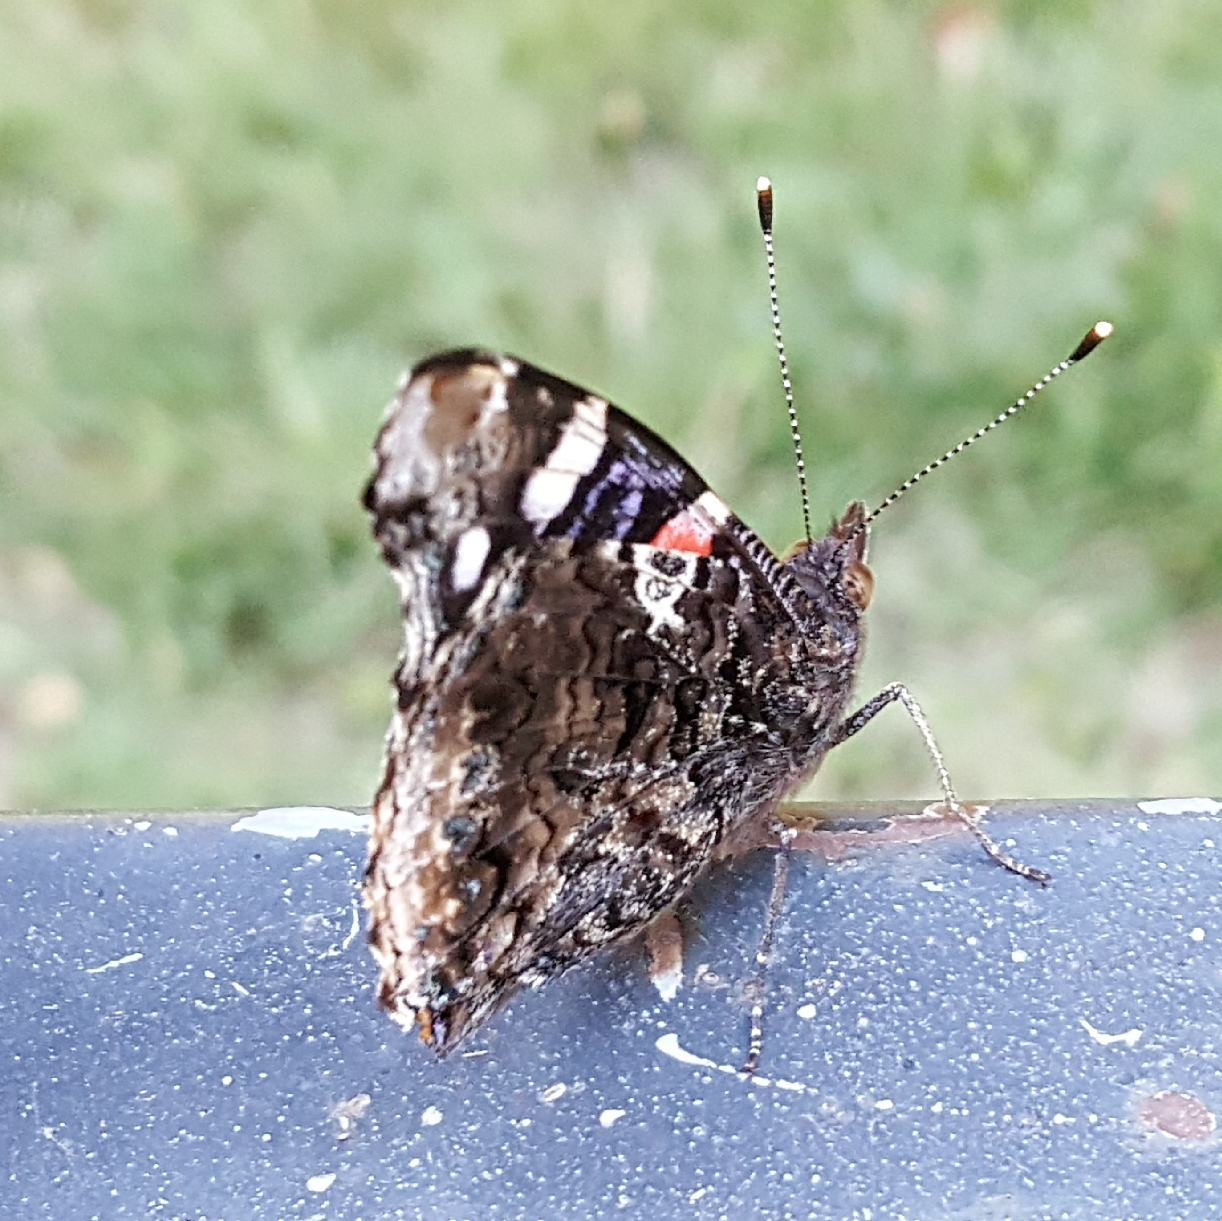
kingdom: Animalia
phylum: Arthropoda
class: Insecta
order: Lepidoptera
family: Nymphalidae
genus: Vanessa
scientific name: Vanessa atalanta
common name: Red admiral
